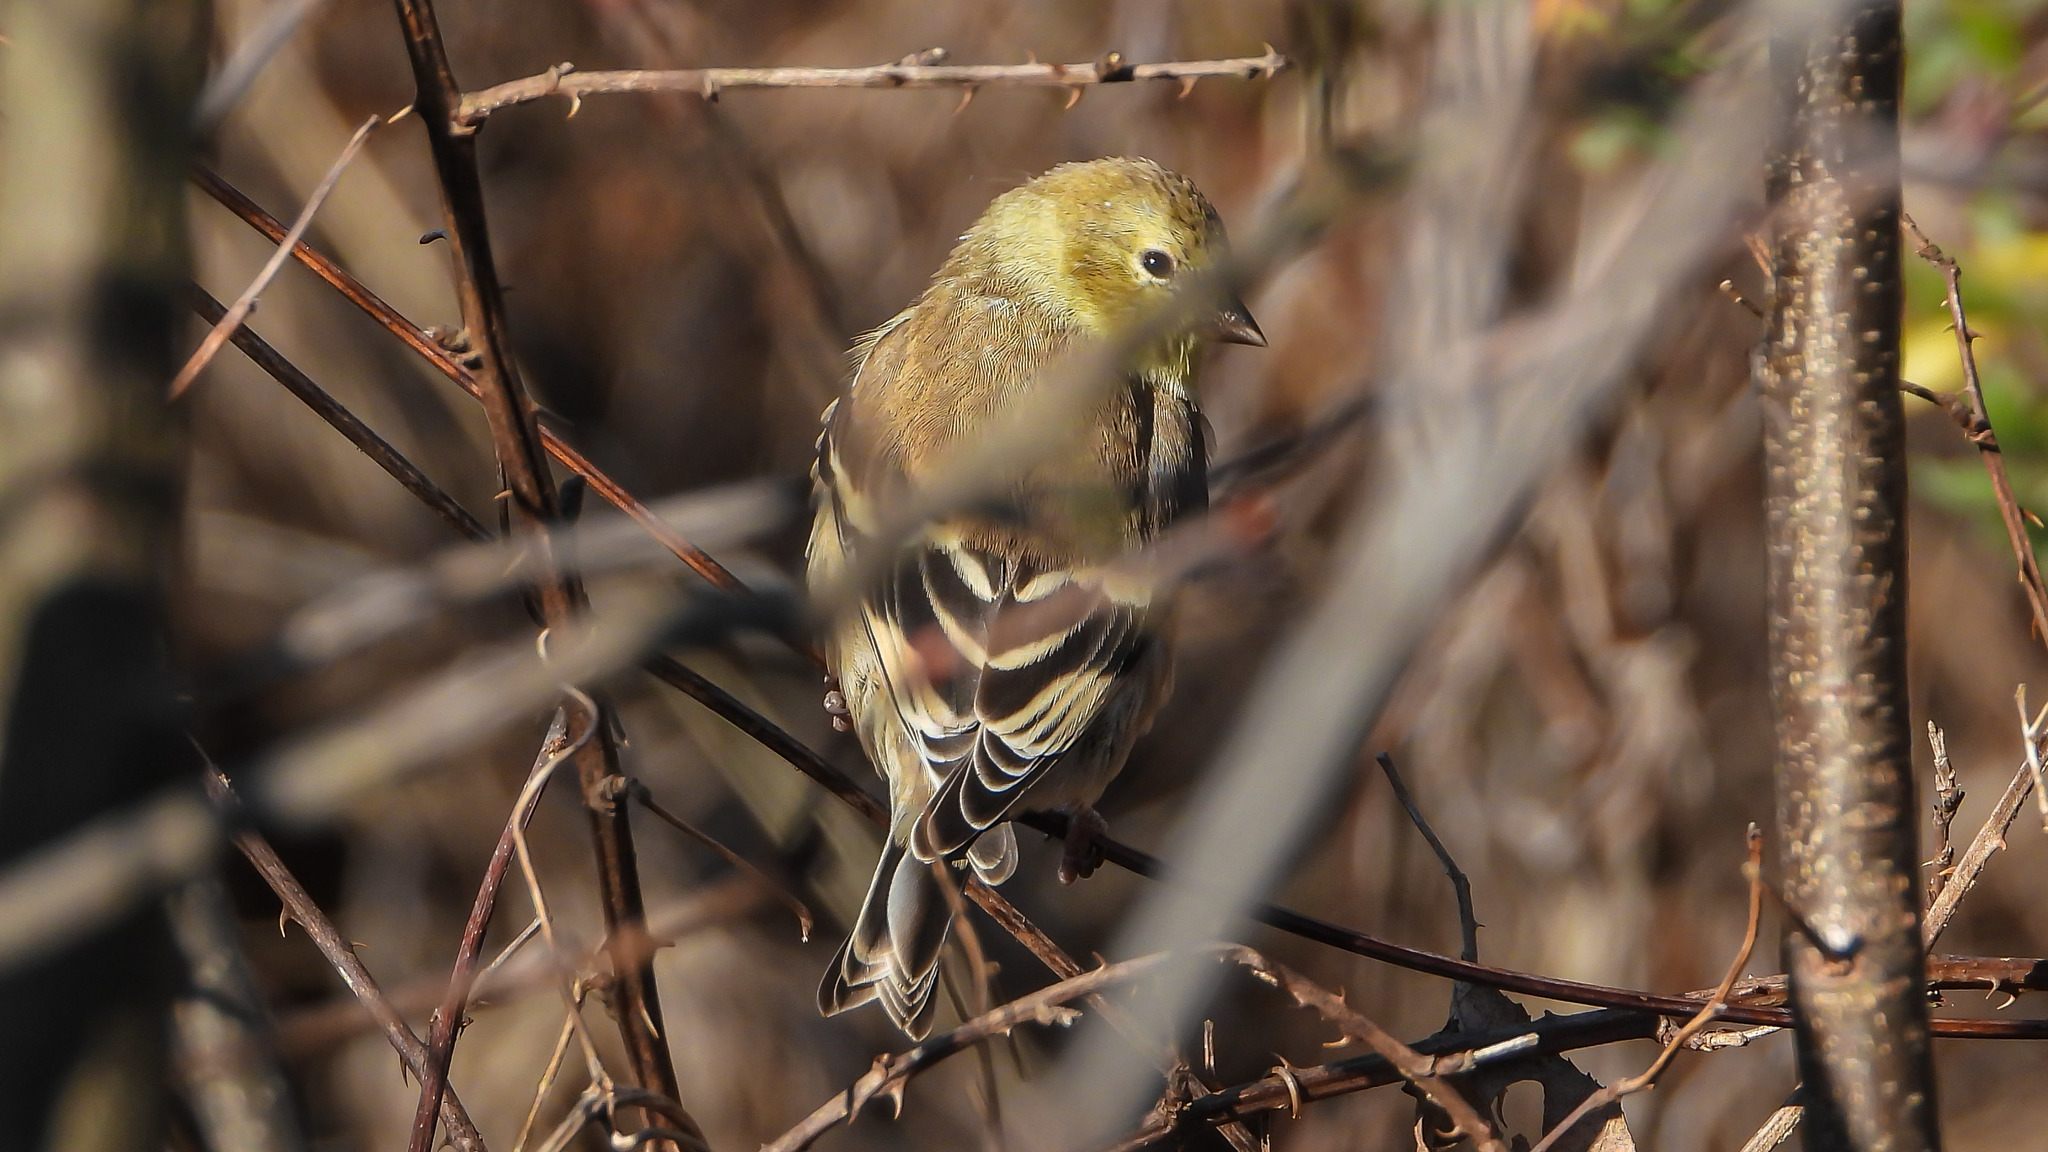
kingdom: Animalia
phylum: Chordata
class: Aves
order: Passeriformes
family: Fringillidae
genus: Spinus
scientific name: Spinus tristis
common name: American goldfinch
